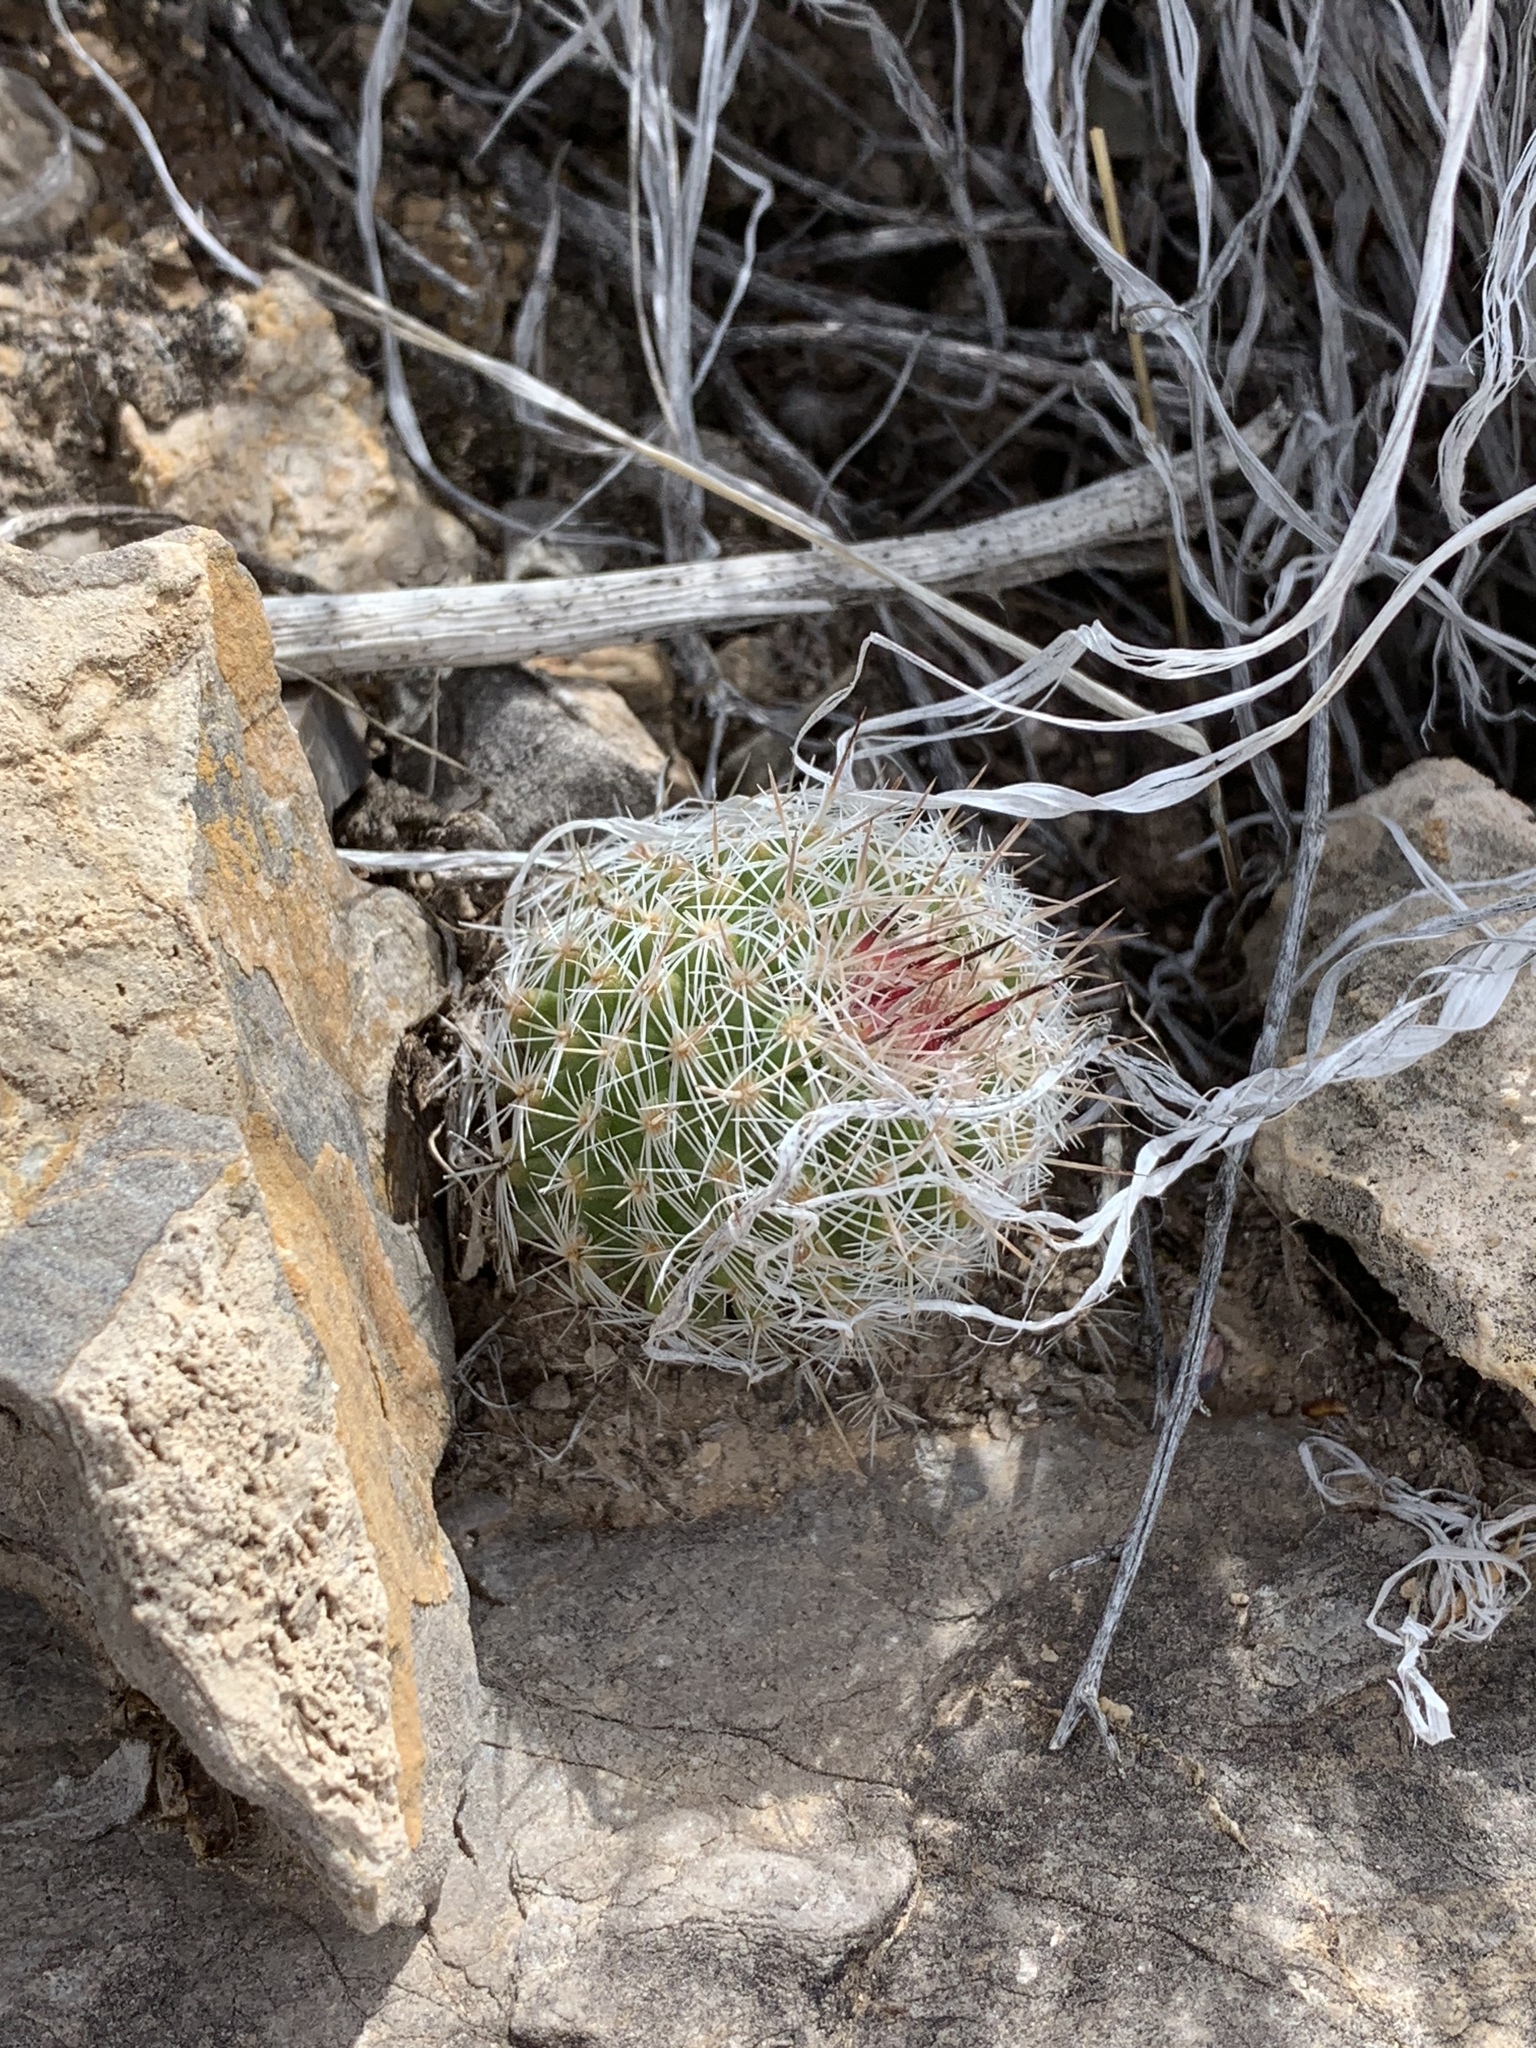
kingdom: Plantae
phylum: Tracheophyta
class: Magnoliopsida
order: Caryophyllales
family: Cactaceae
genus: Pelecyphora
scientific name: Pelecyphora tuberculosa
